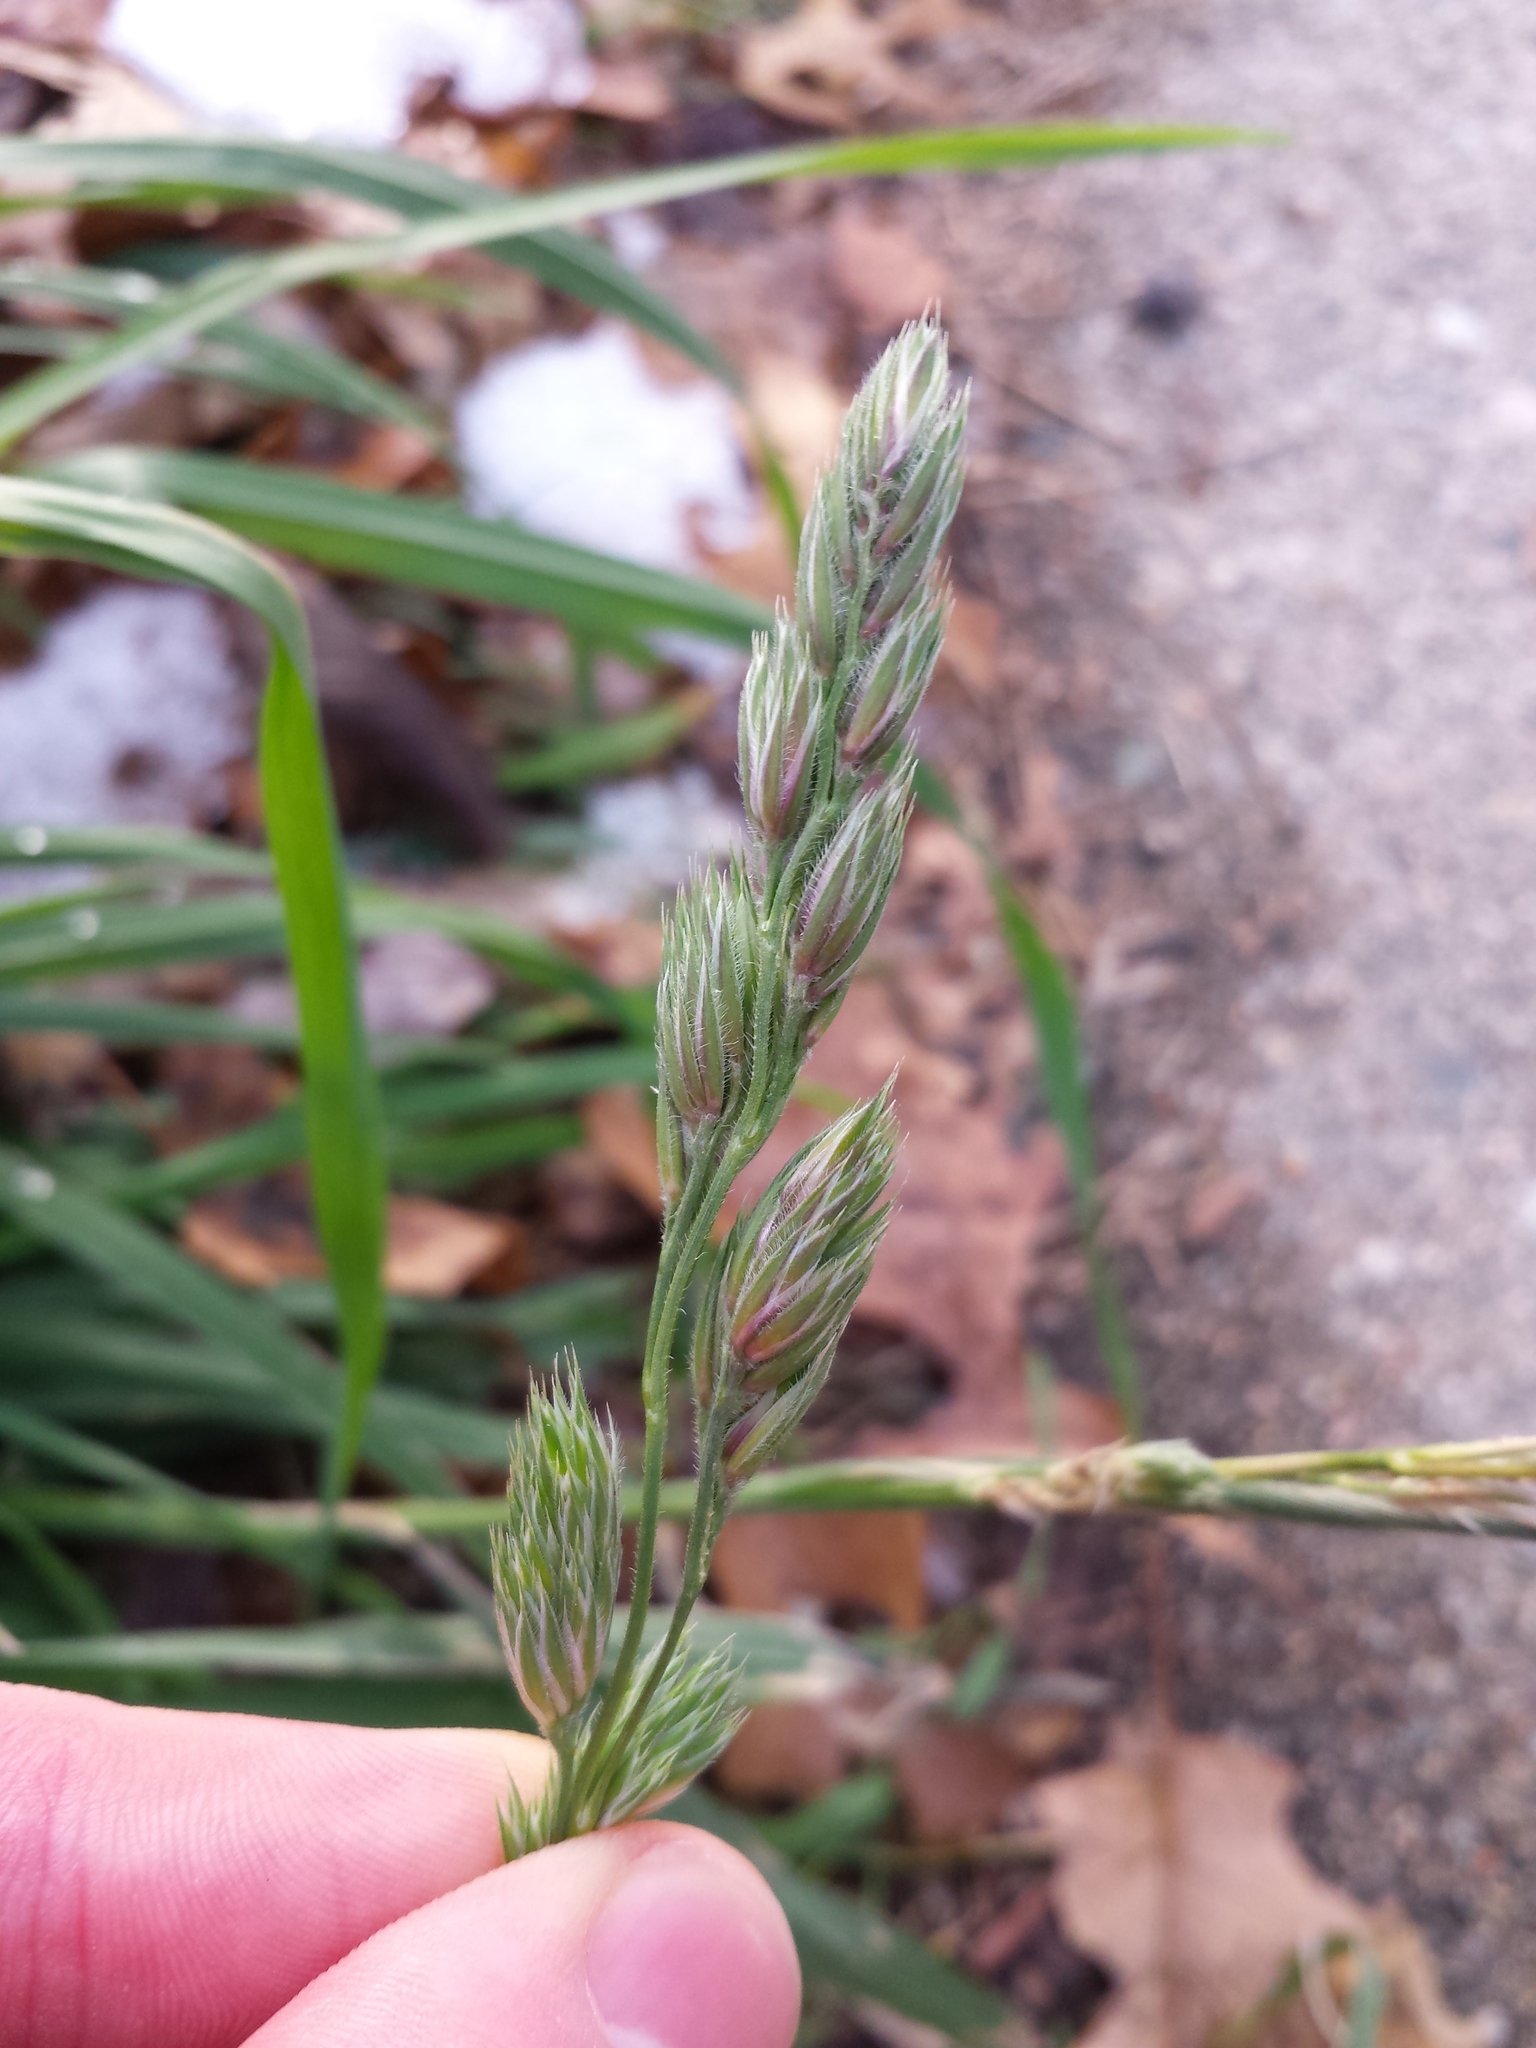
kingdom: Plantae
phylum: Tracheophyta
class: Liliopsida
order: Poales
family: Poaceae
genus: Dactylis
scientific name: Dactylis glomerata
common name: Orchardgrass
